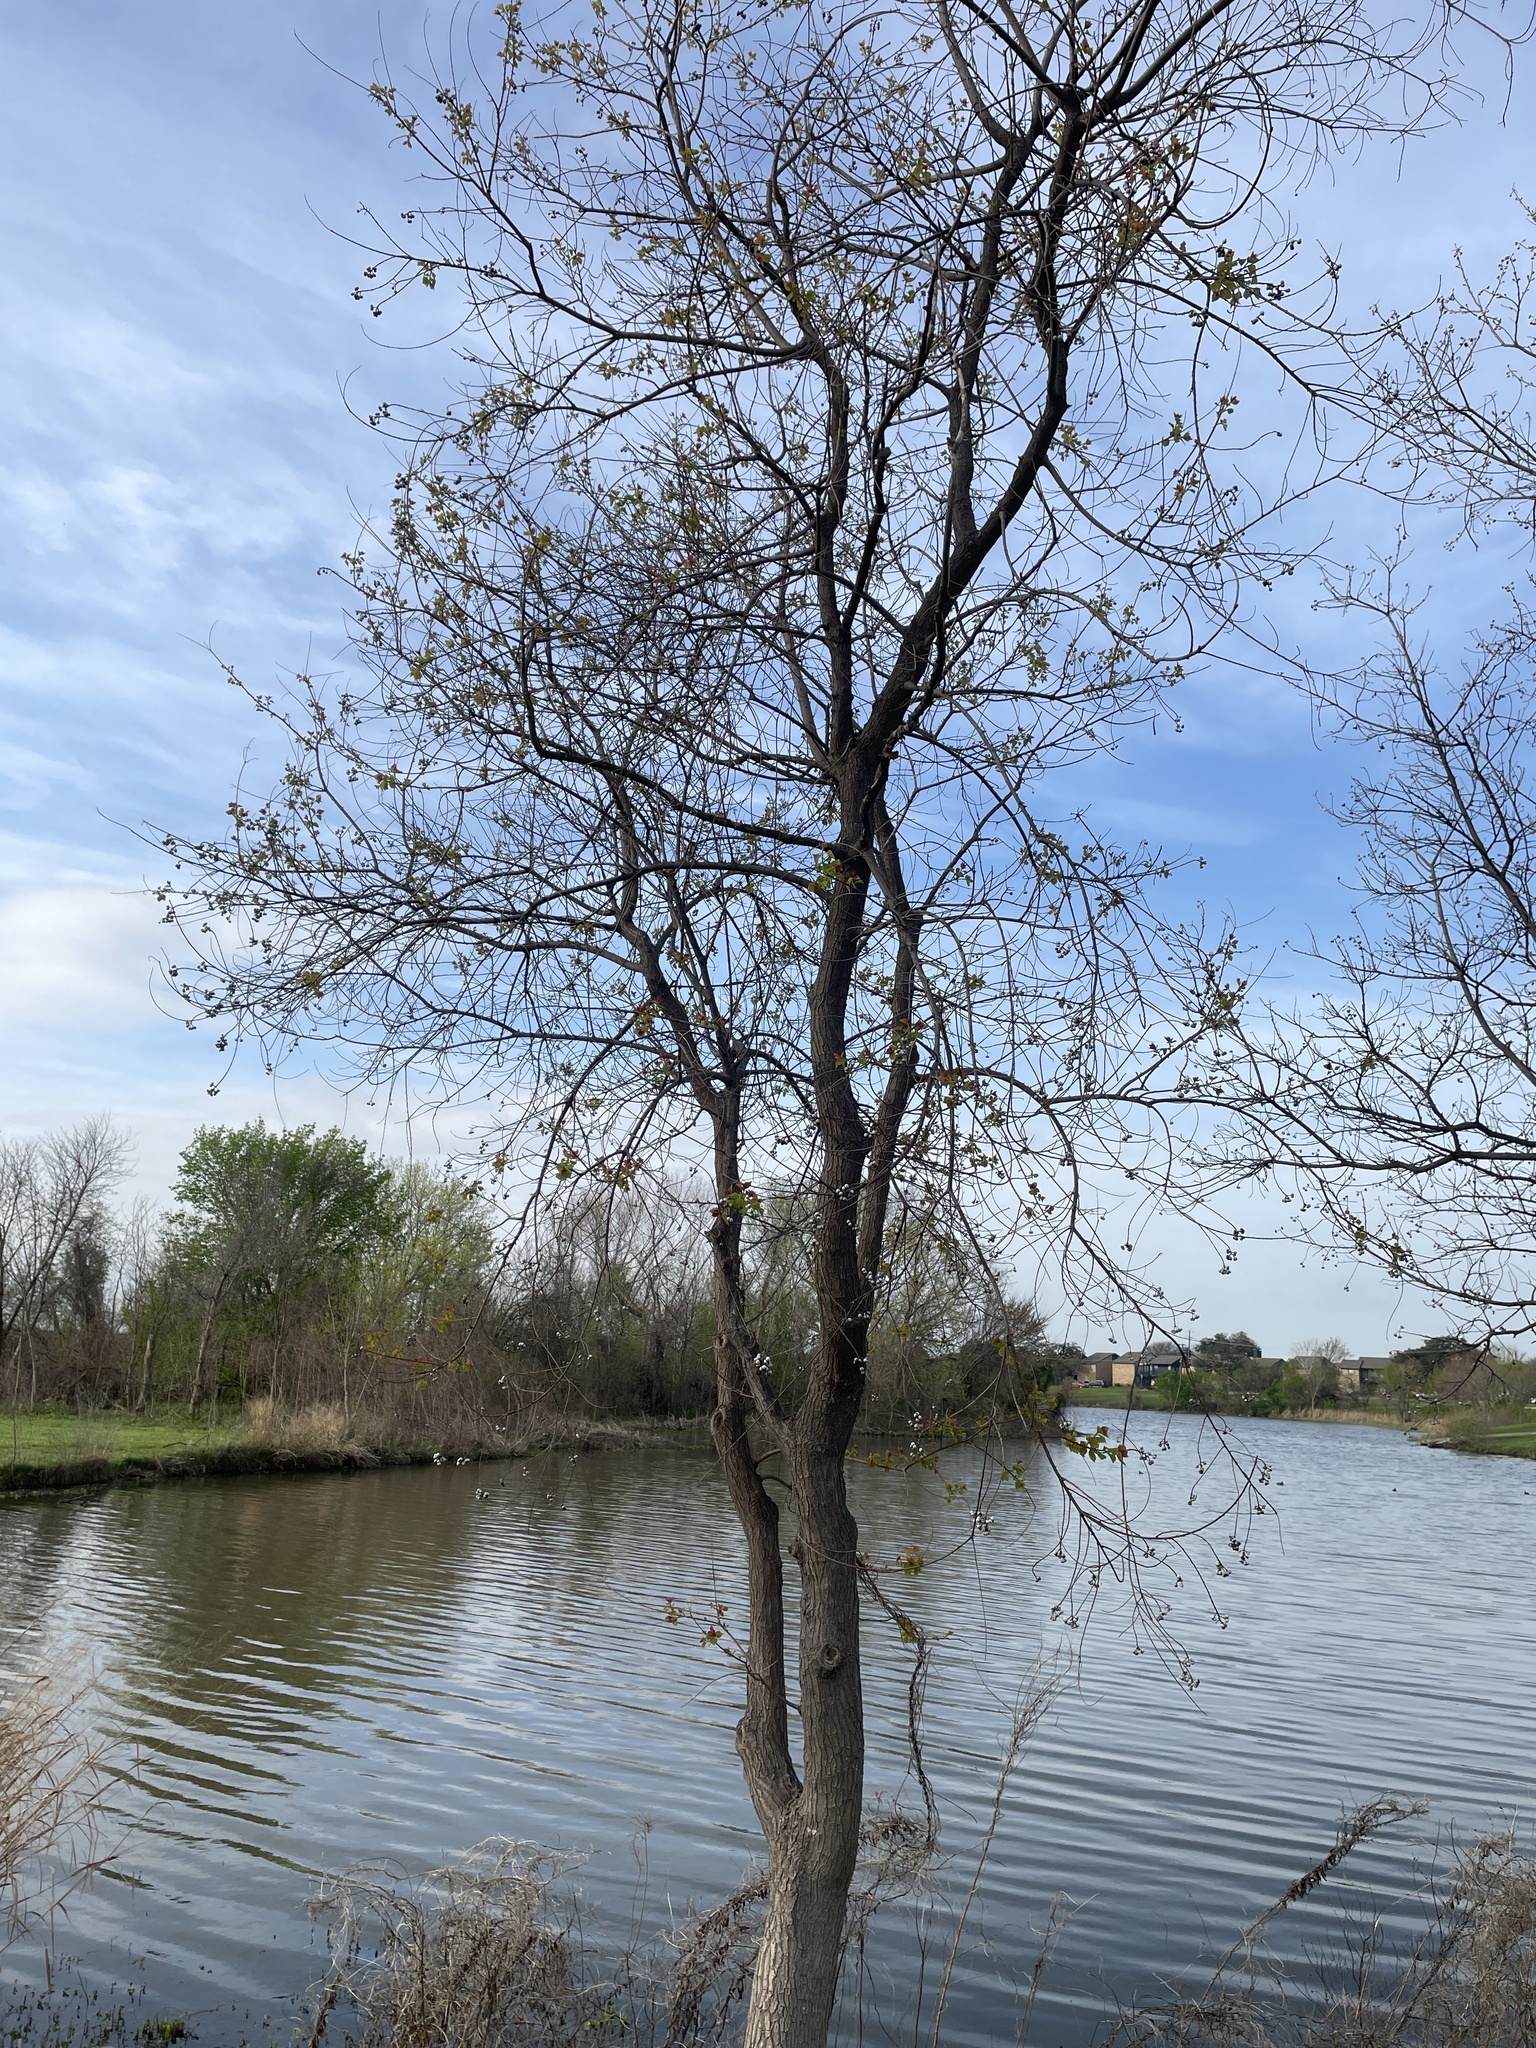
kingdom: Plantae
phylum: Tracheophyta
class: Magnoliopsida
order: Malpighiales
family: Euphorbiaceae
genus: Triadica
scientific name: Triadica sebifera
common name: Chinese tallow
